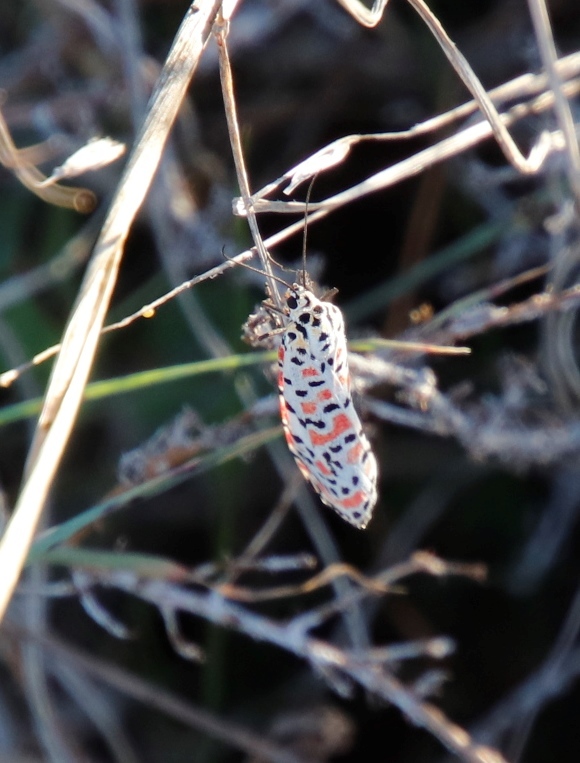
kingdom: Animalia
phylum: Arthropoda
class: Insecta
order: Lepidoptera
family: Erebidae
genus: Utetheisa
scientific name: Utetheisa pulchella
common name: Crimson speckled
